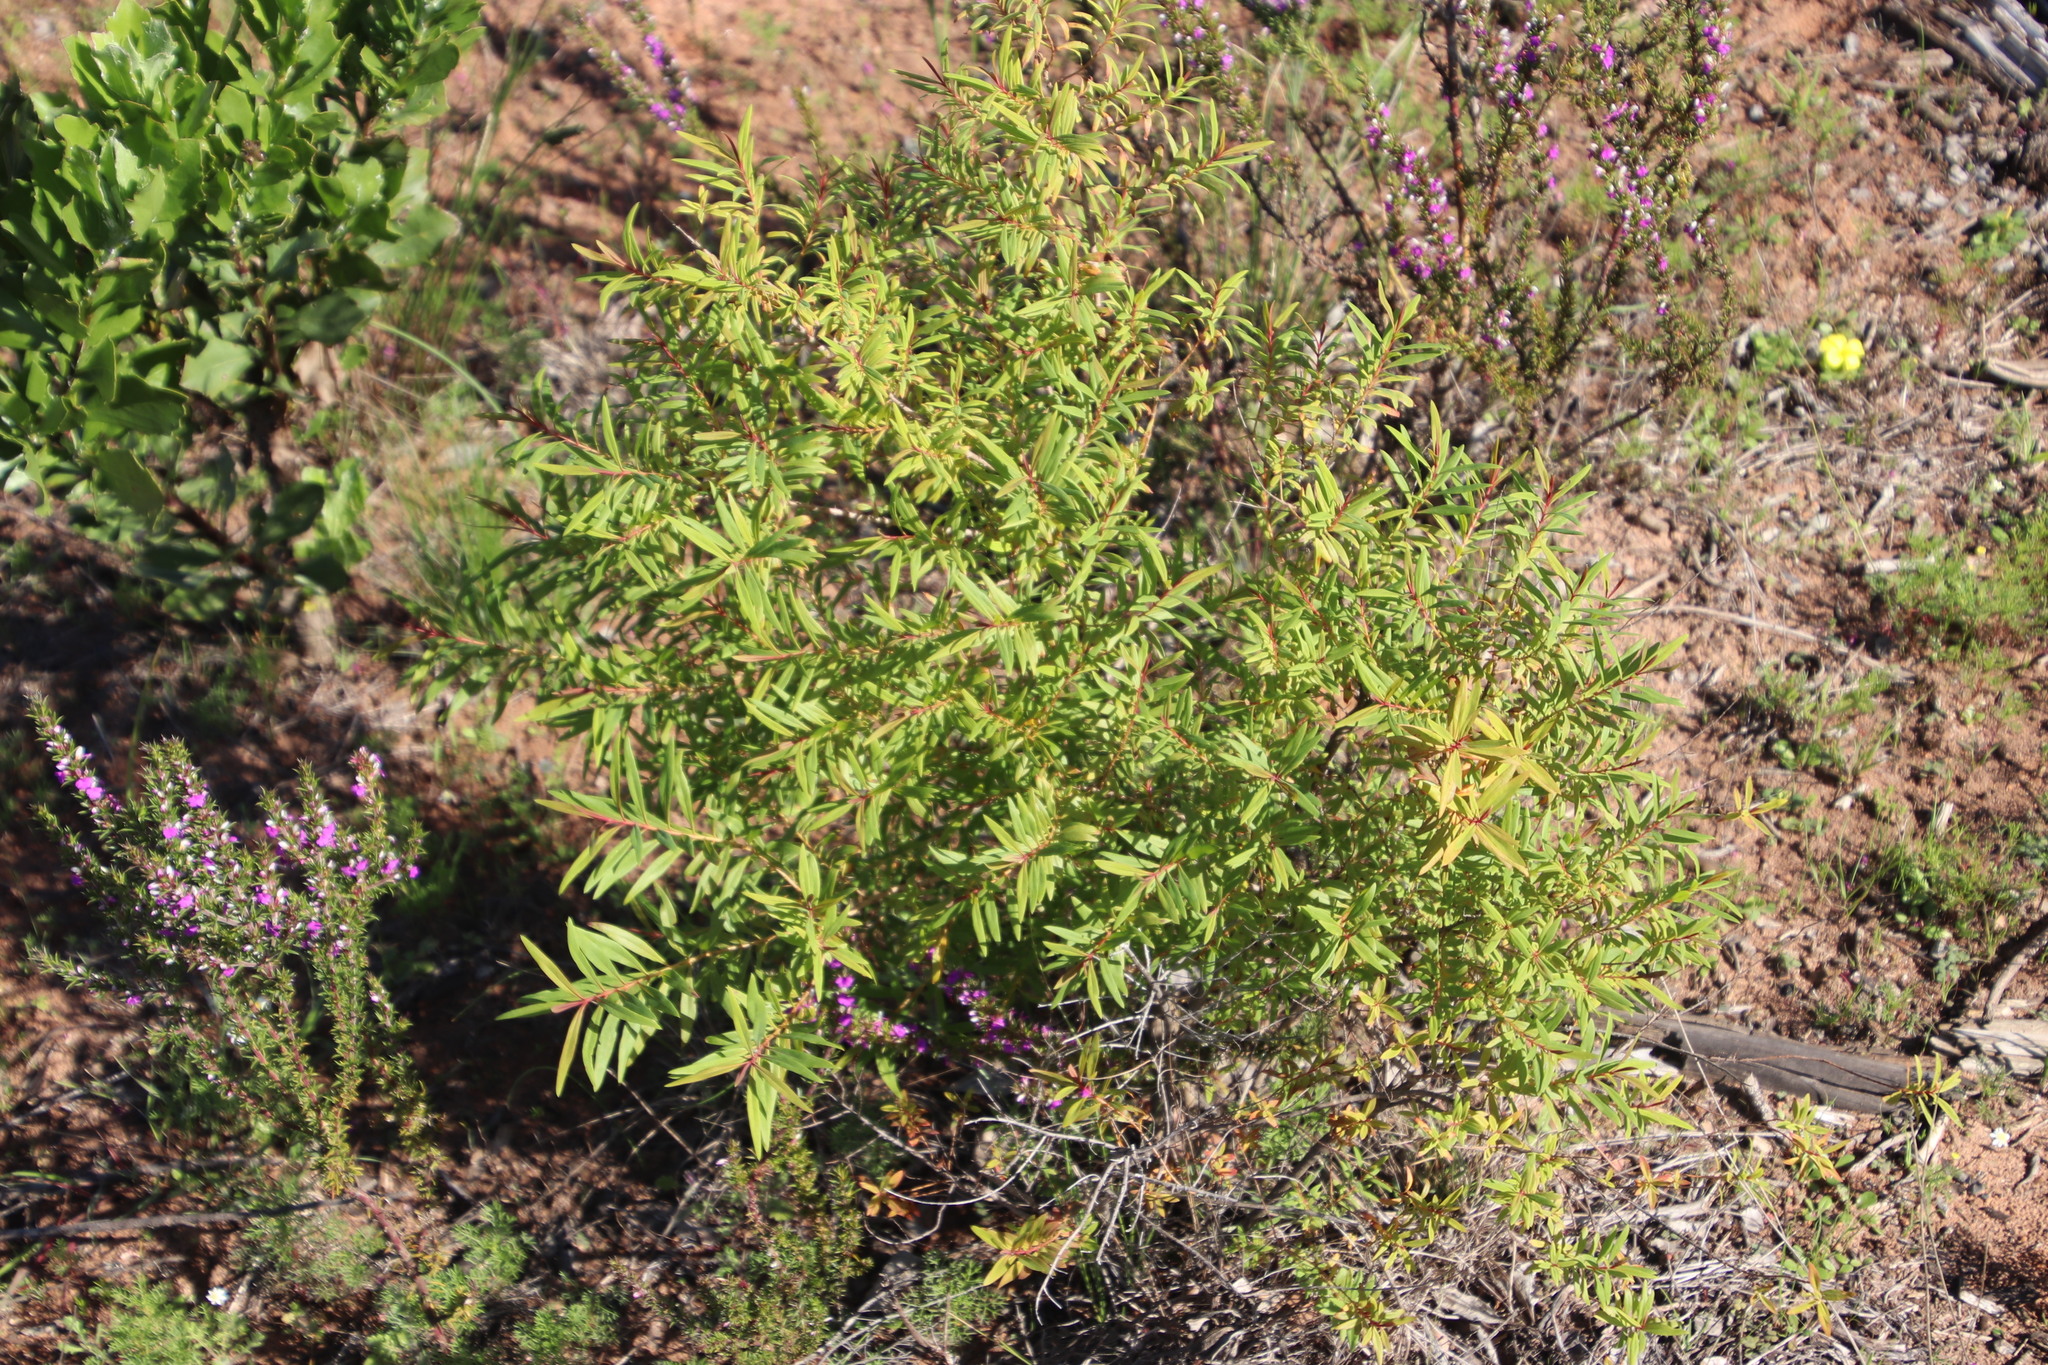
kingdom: Plantae
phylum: Tracheophyta
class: Magnoliopsida
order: Malpighiales
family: Hypericaceae
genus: Hypericum
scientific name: Hypericum canariense
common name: Canary island st. johnswort
